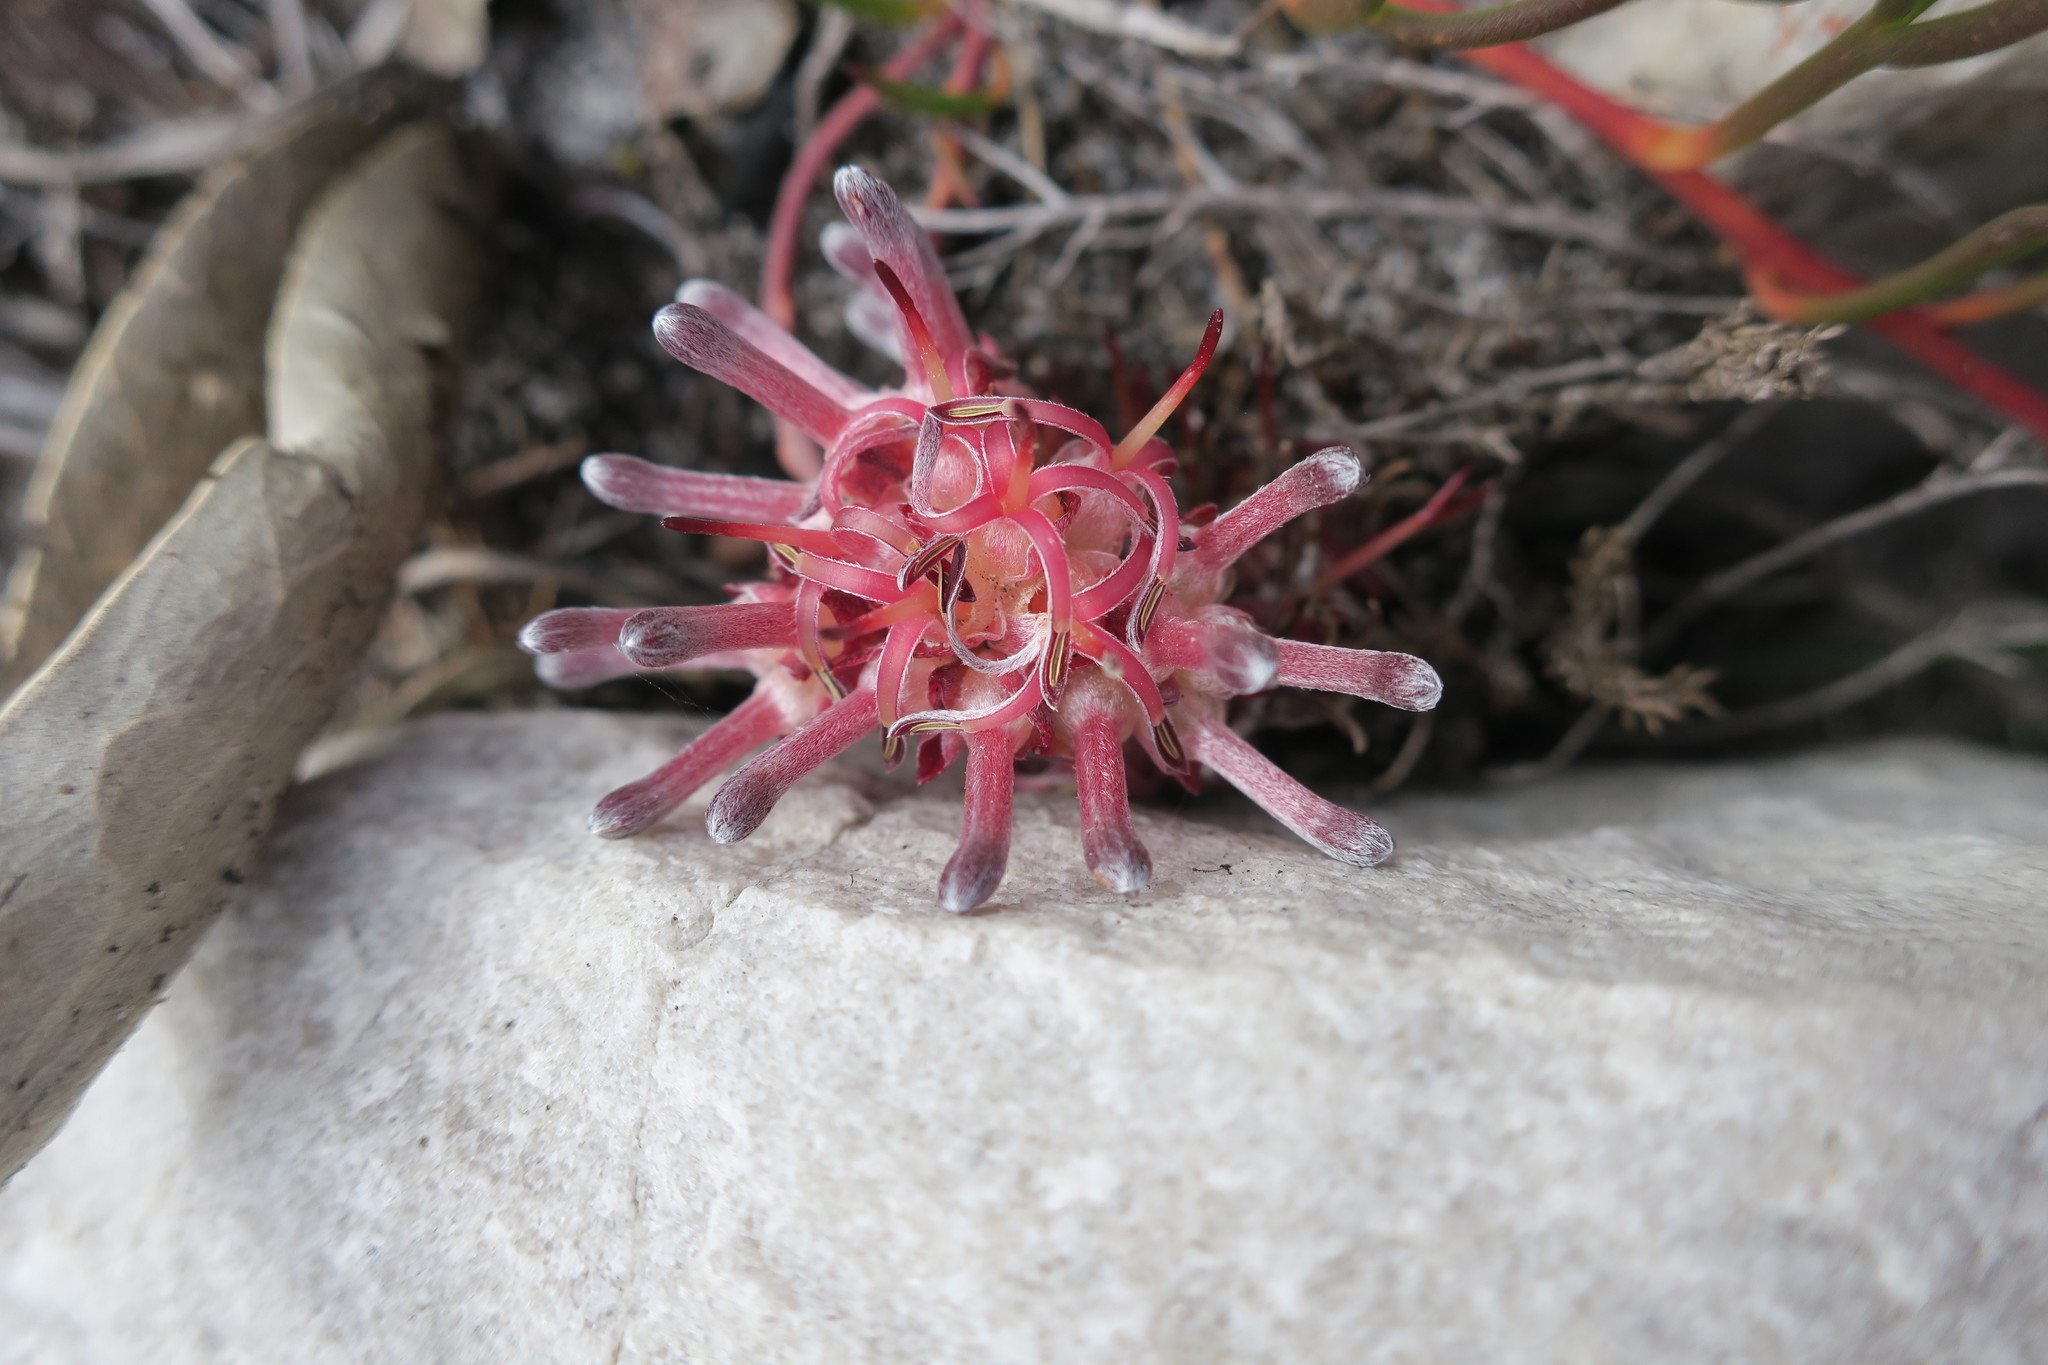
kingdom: Plantae
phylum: Tracheophyta
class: Magnoliopsida
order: Proteales
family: Proteaceae
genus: Serruria
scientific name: Serruria decumbens
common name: Peninsula spiderhead
